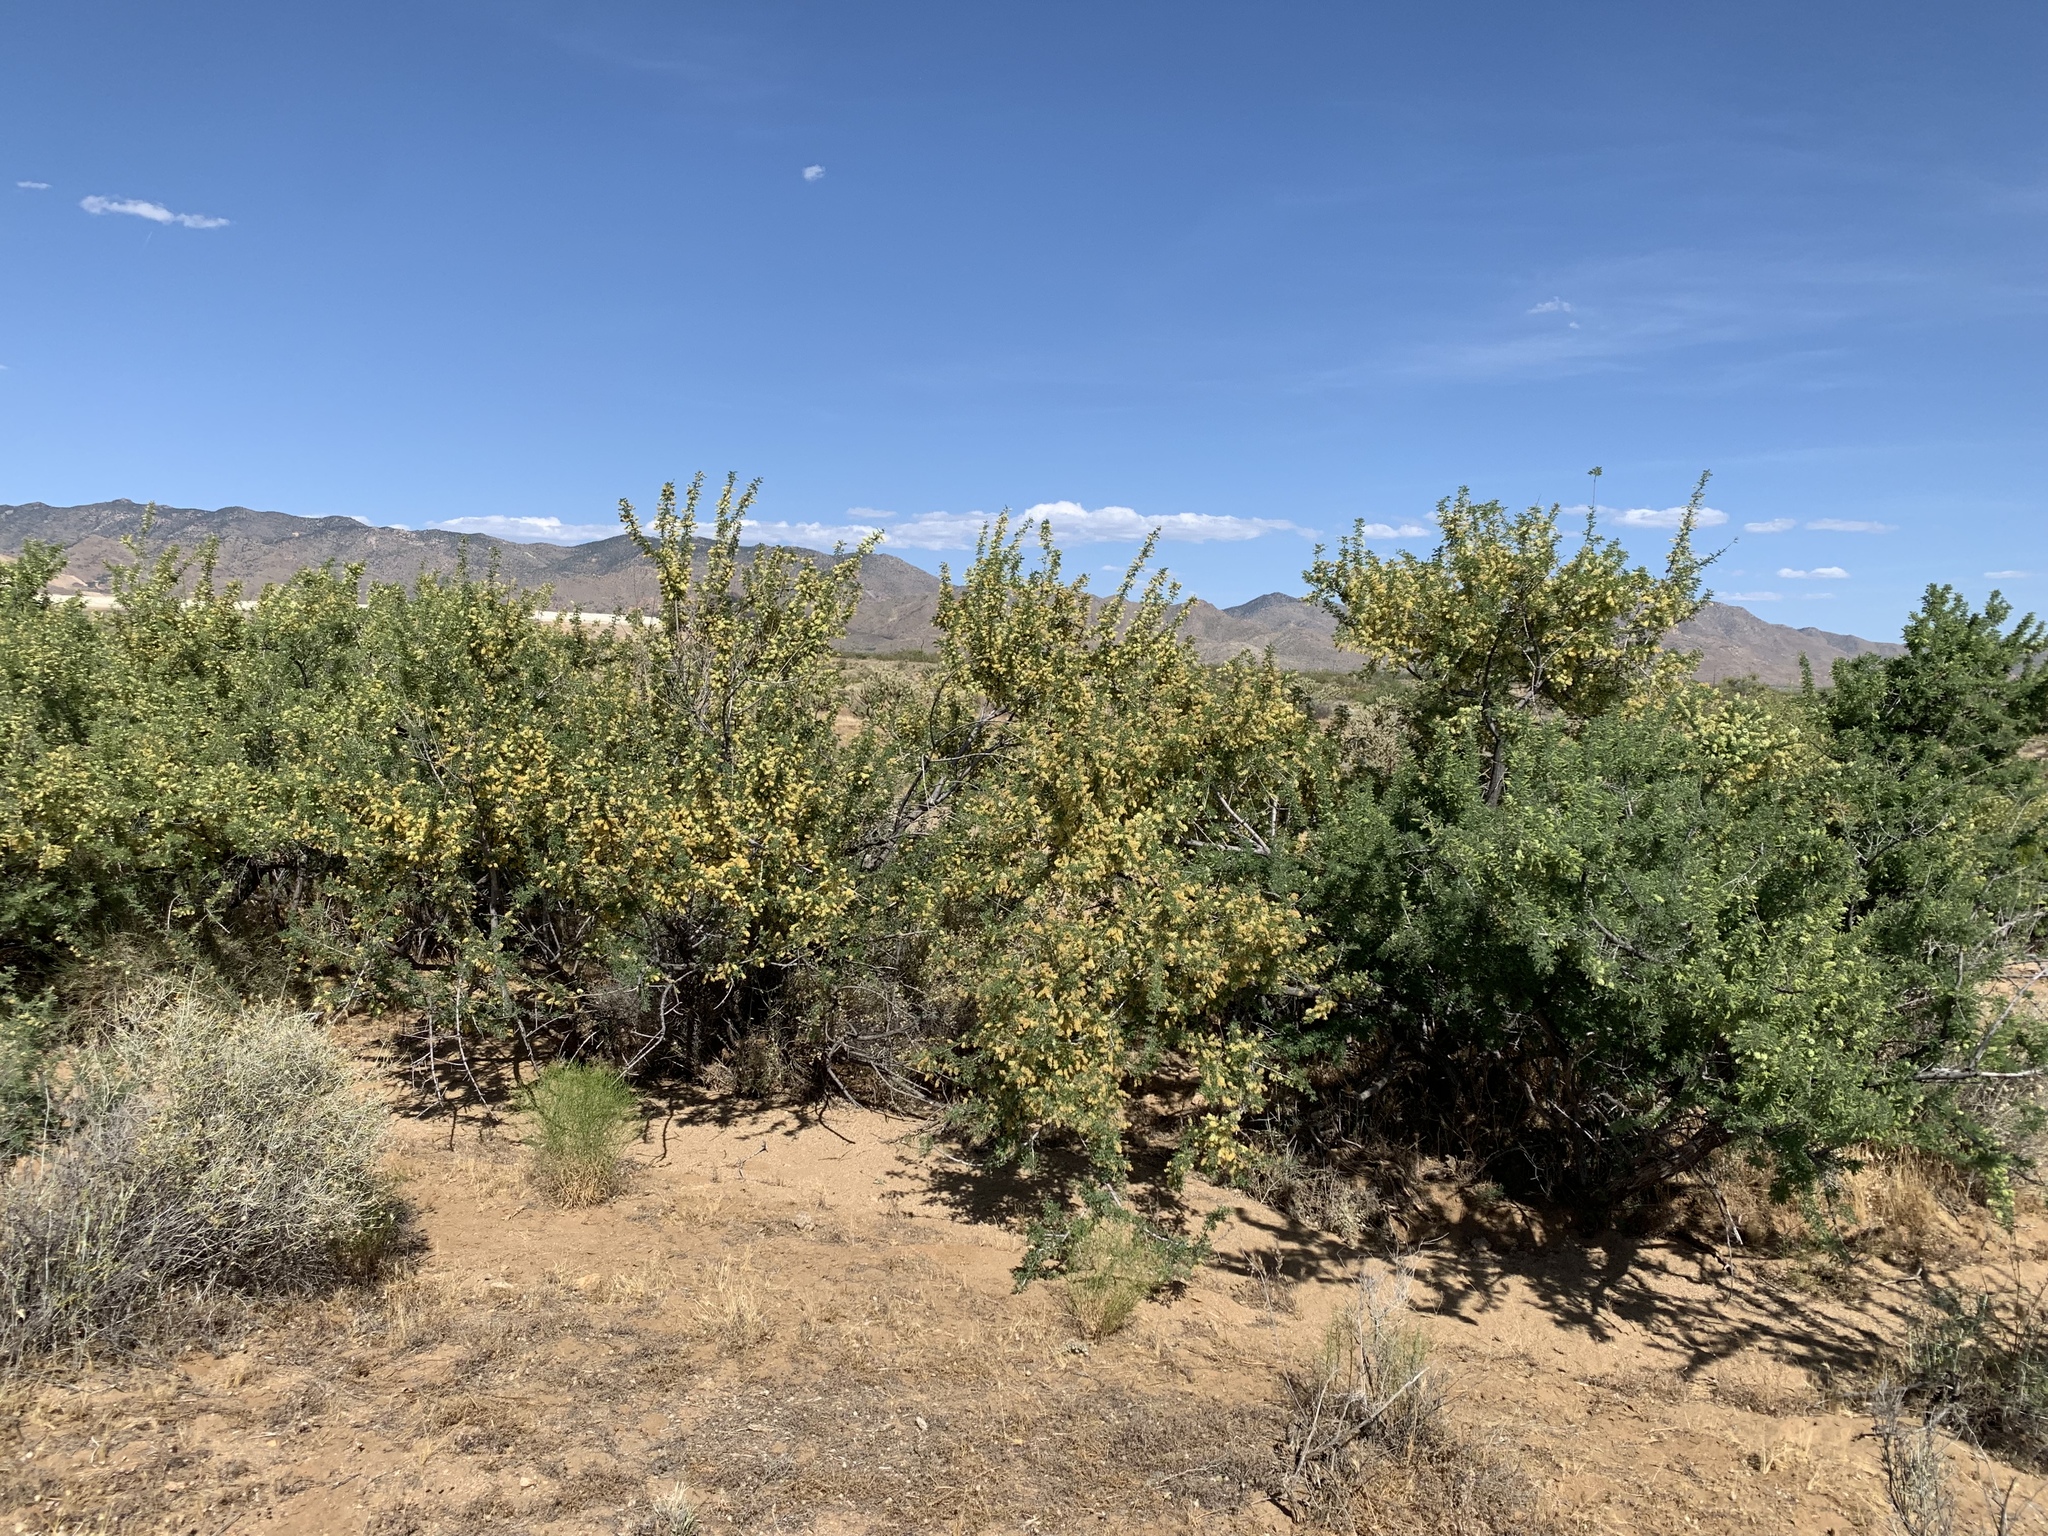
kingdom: Plantae
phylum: Tracheophyta
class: Magnoliopsida
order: Fabales
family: Fabaceae
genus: Senegalia
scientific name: Senegalia greggii
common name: Texas-mimosa
